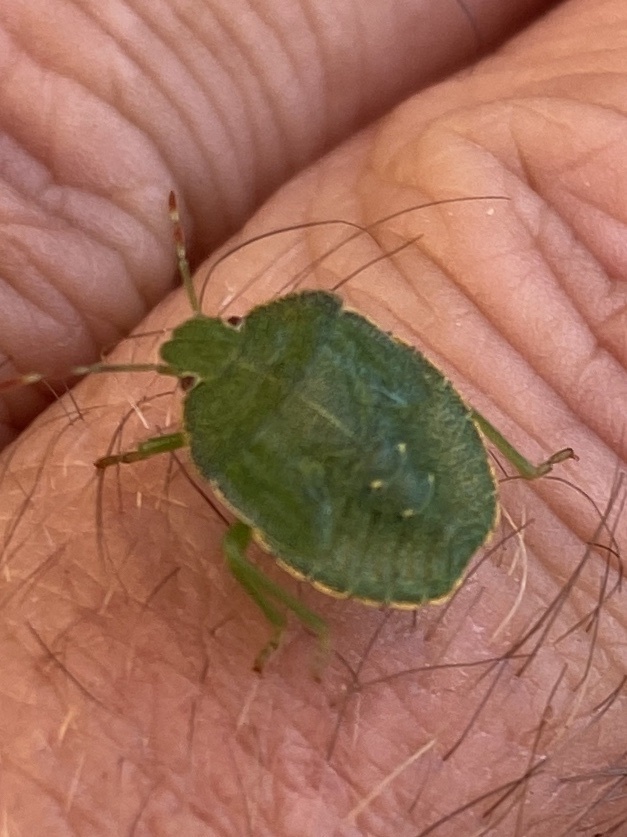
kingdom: Animalia
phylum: Arthropoda
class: Insecta
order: Hemiptera
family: Pentatomidae
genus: Palomena
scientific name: Palomena prasina
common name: Green shieldbug
